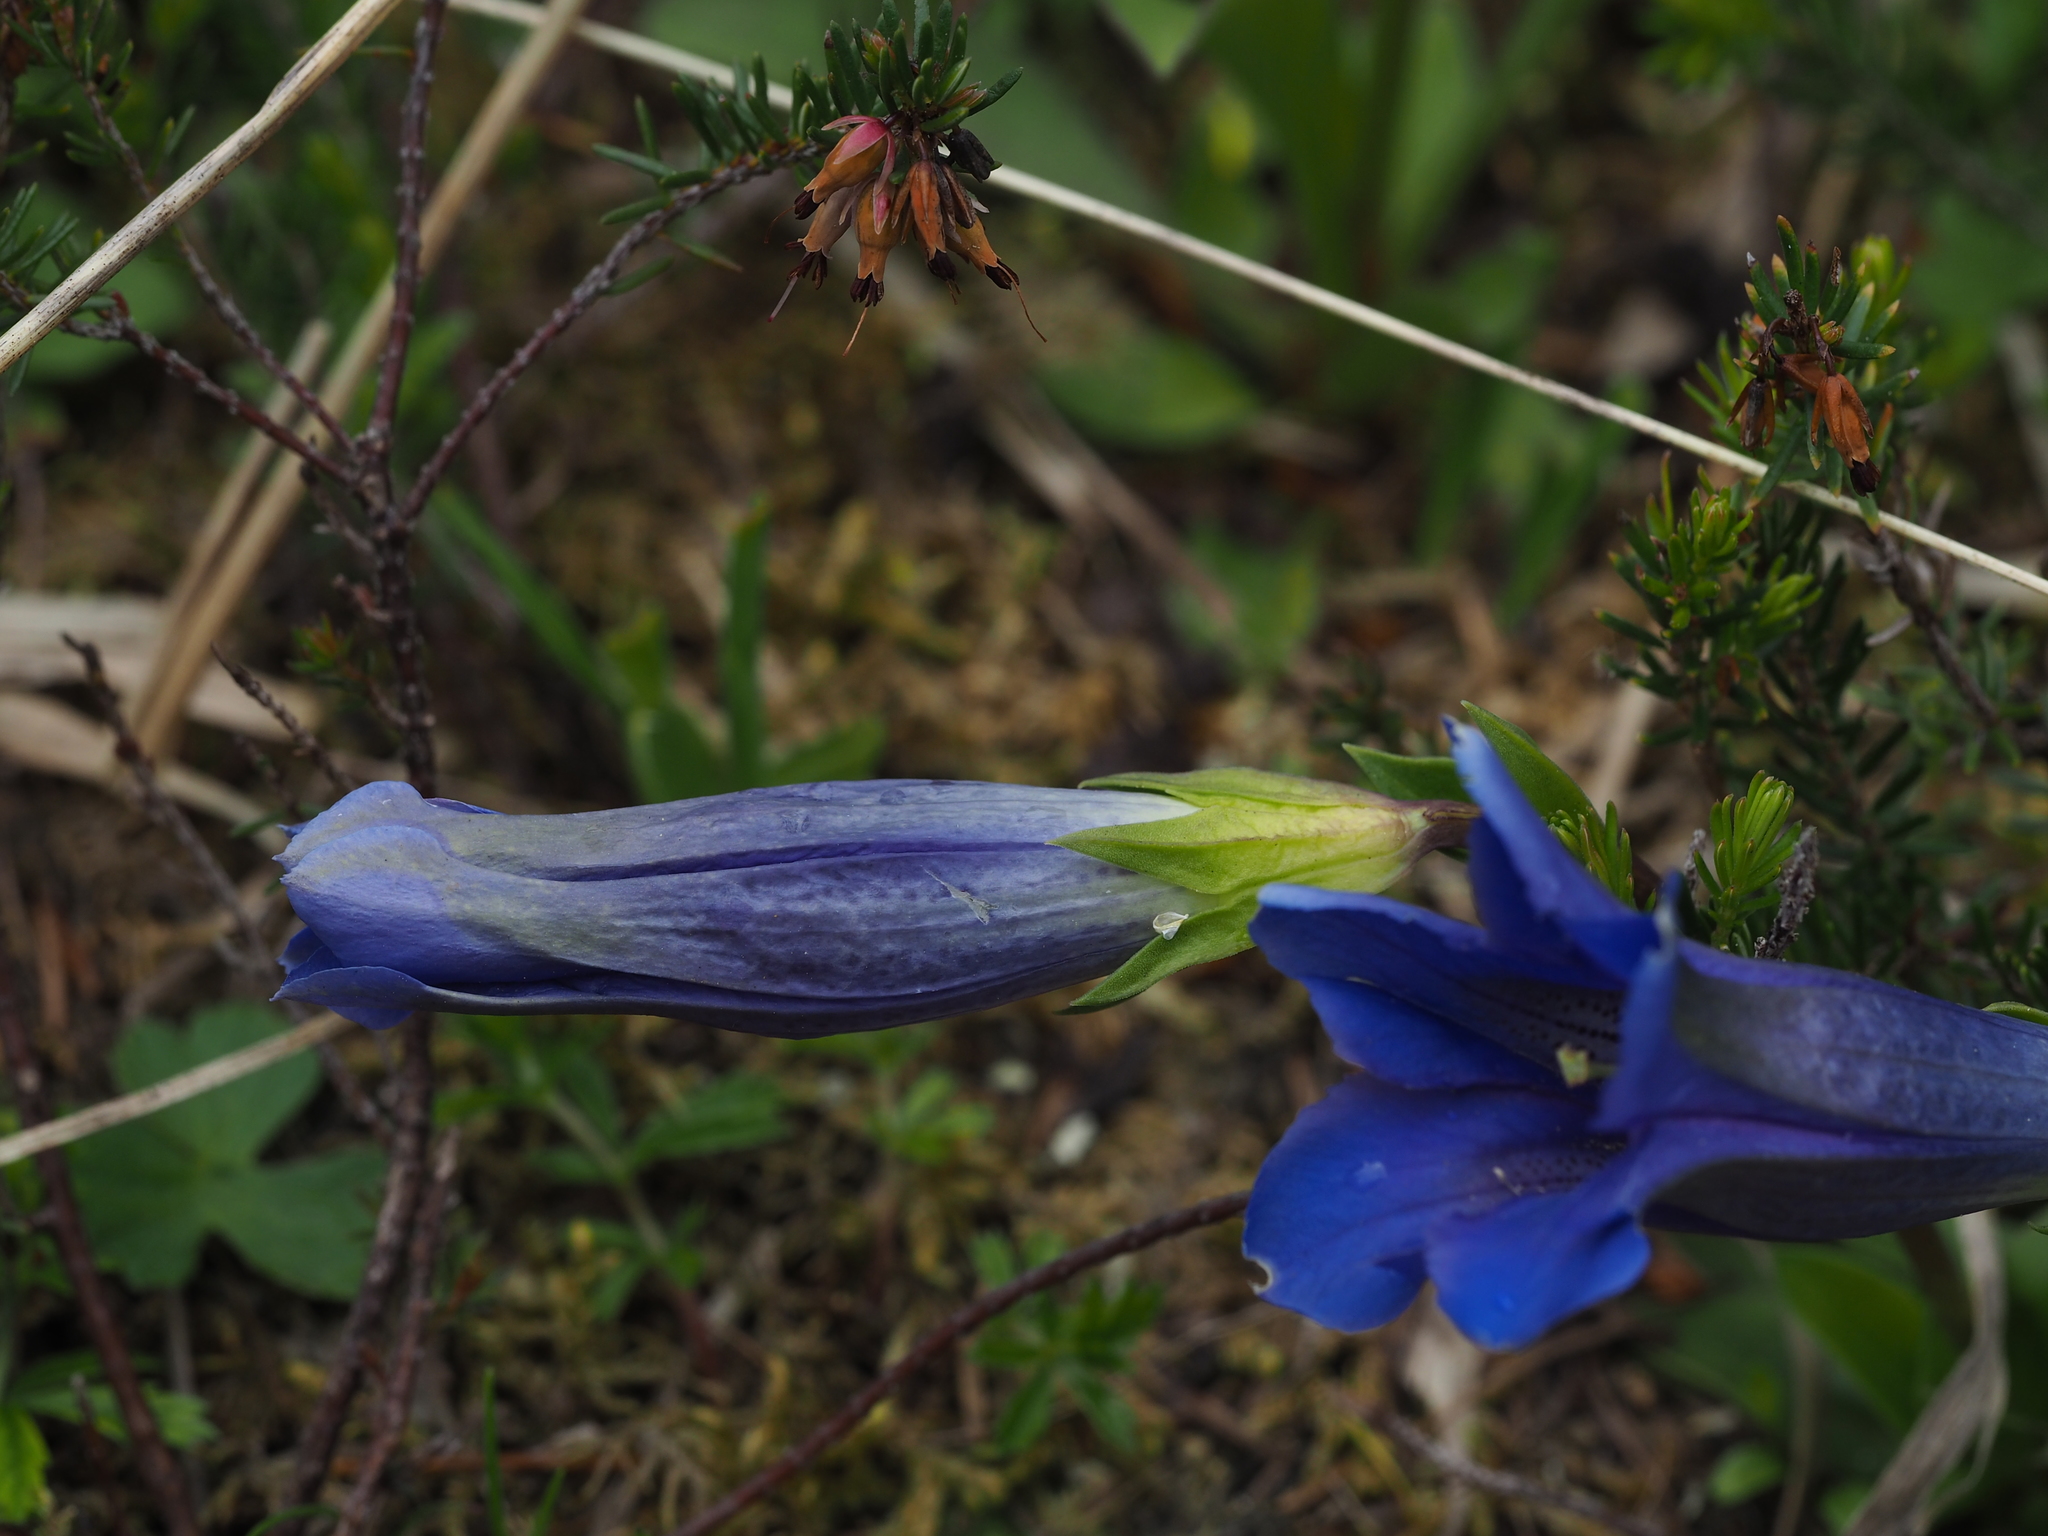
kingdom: Plantae
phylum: Tracheophyta
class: Magnoliopsida
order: Gentianales
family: Gentianaceae
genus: Gentiana
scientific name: Gentiana clusii
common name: Trumpet gentian
